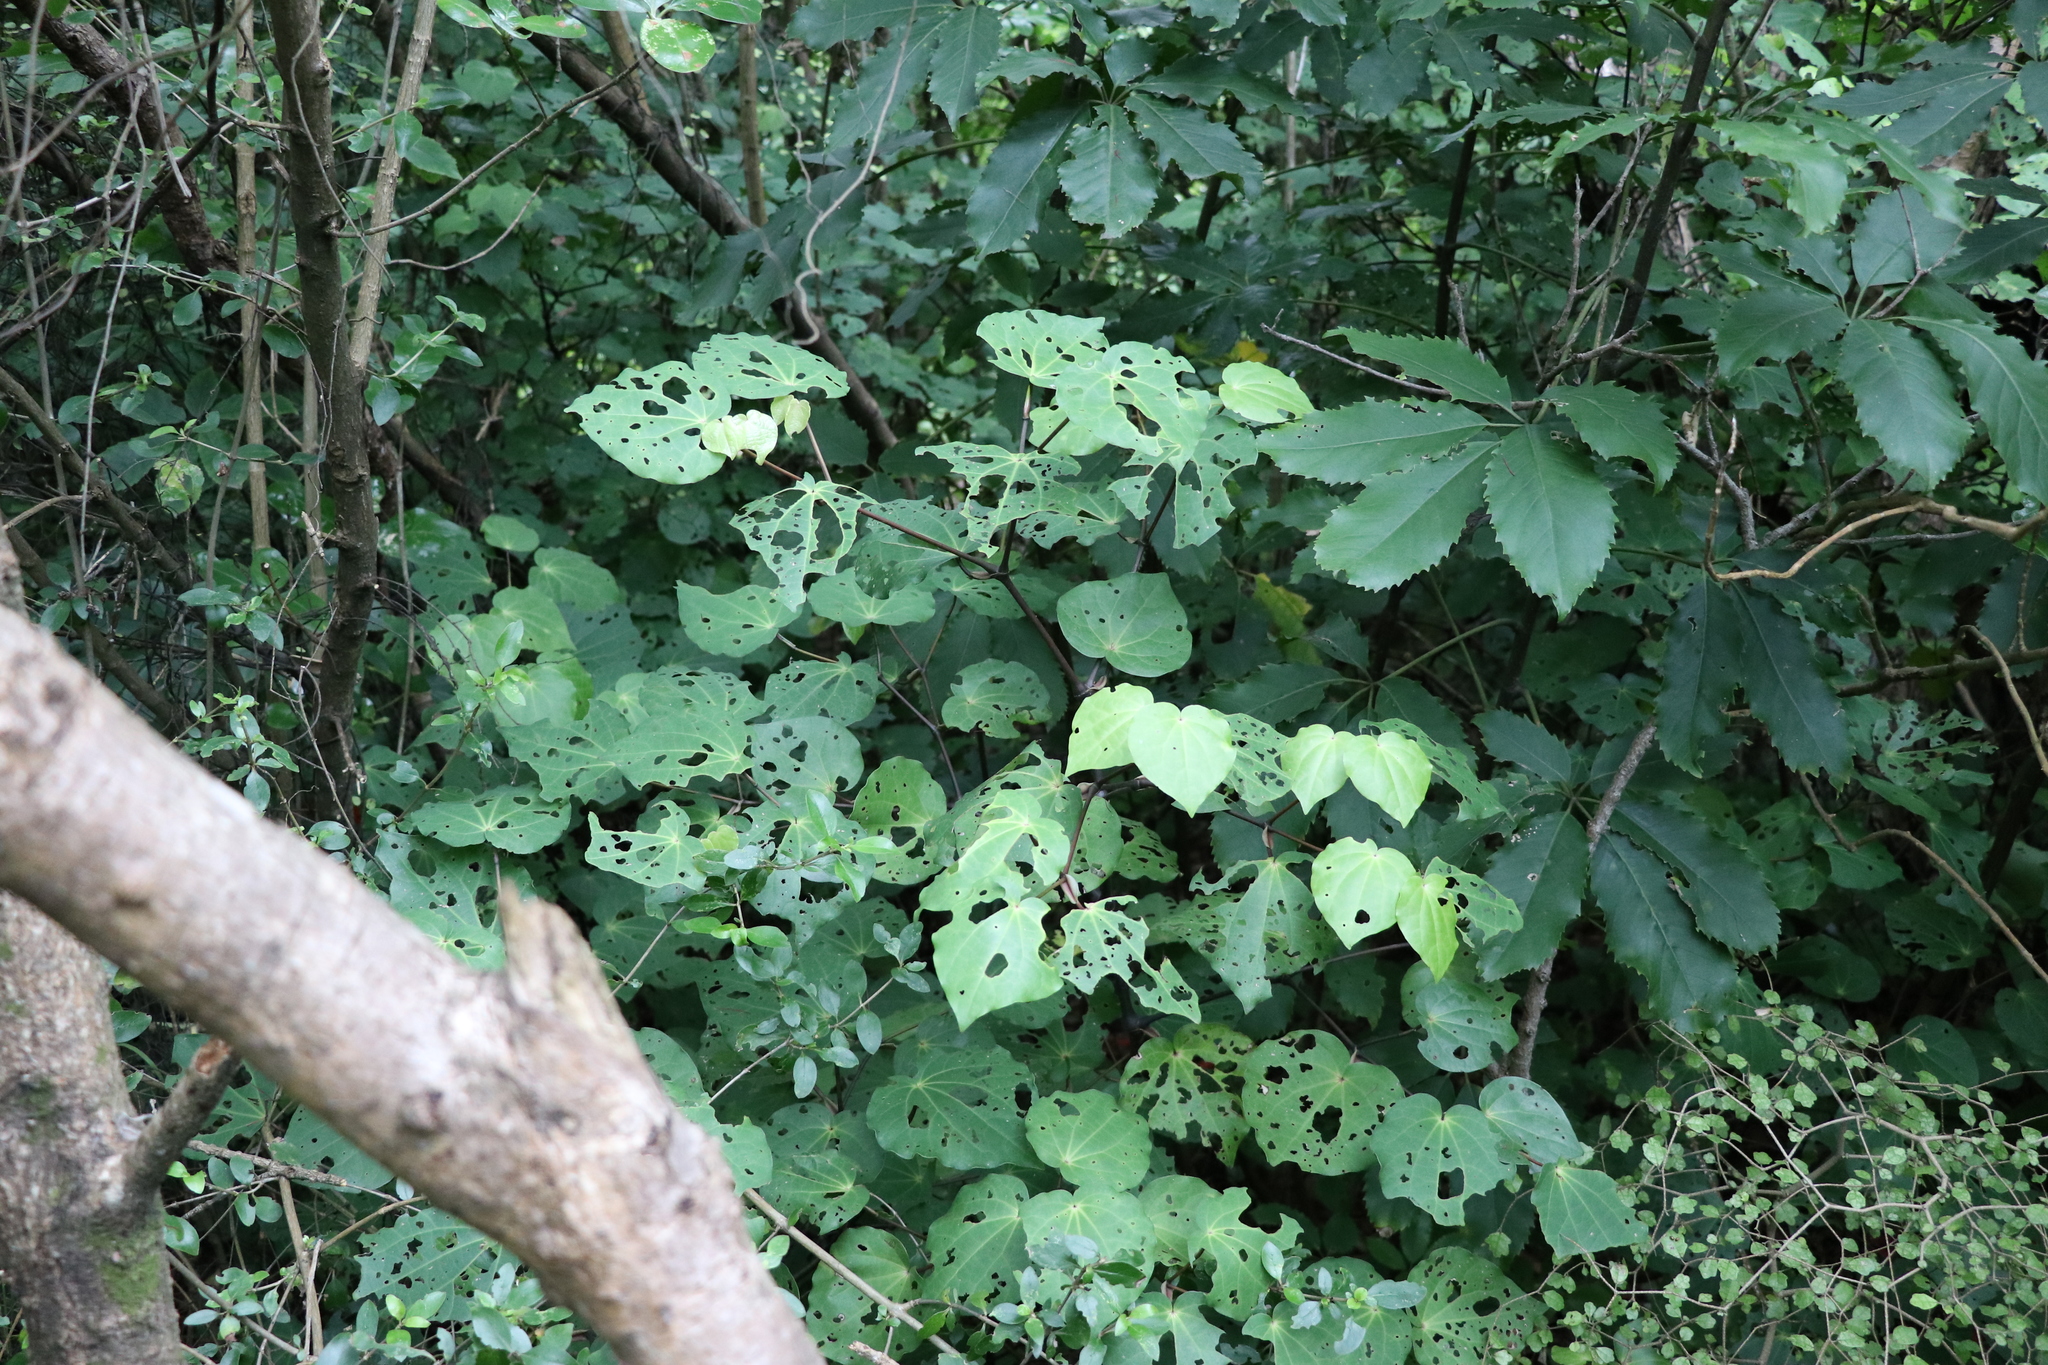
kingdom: Plantae
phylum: Tracheophyta
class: Magnoliopsida
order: Piperales
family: Piperaceae
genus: Macropiper
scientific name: Macropiper excelsum
